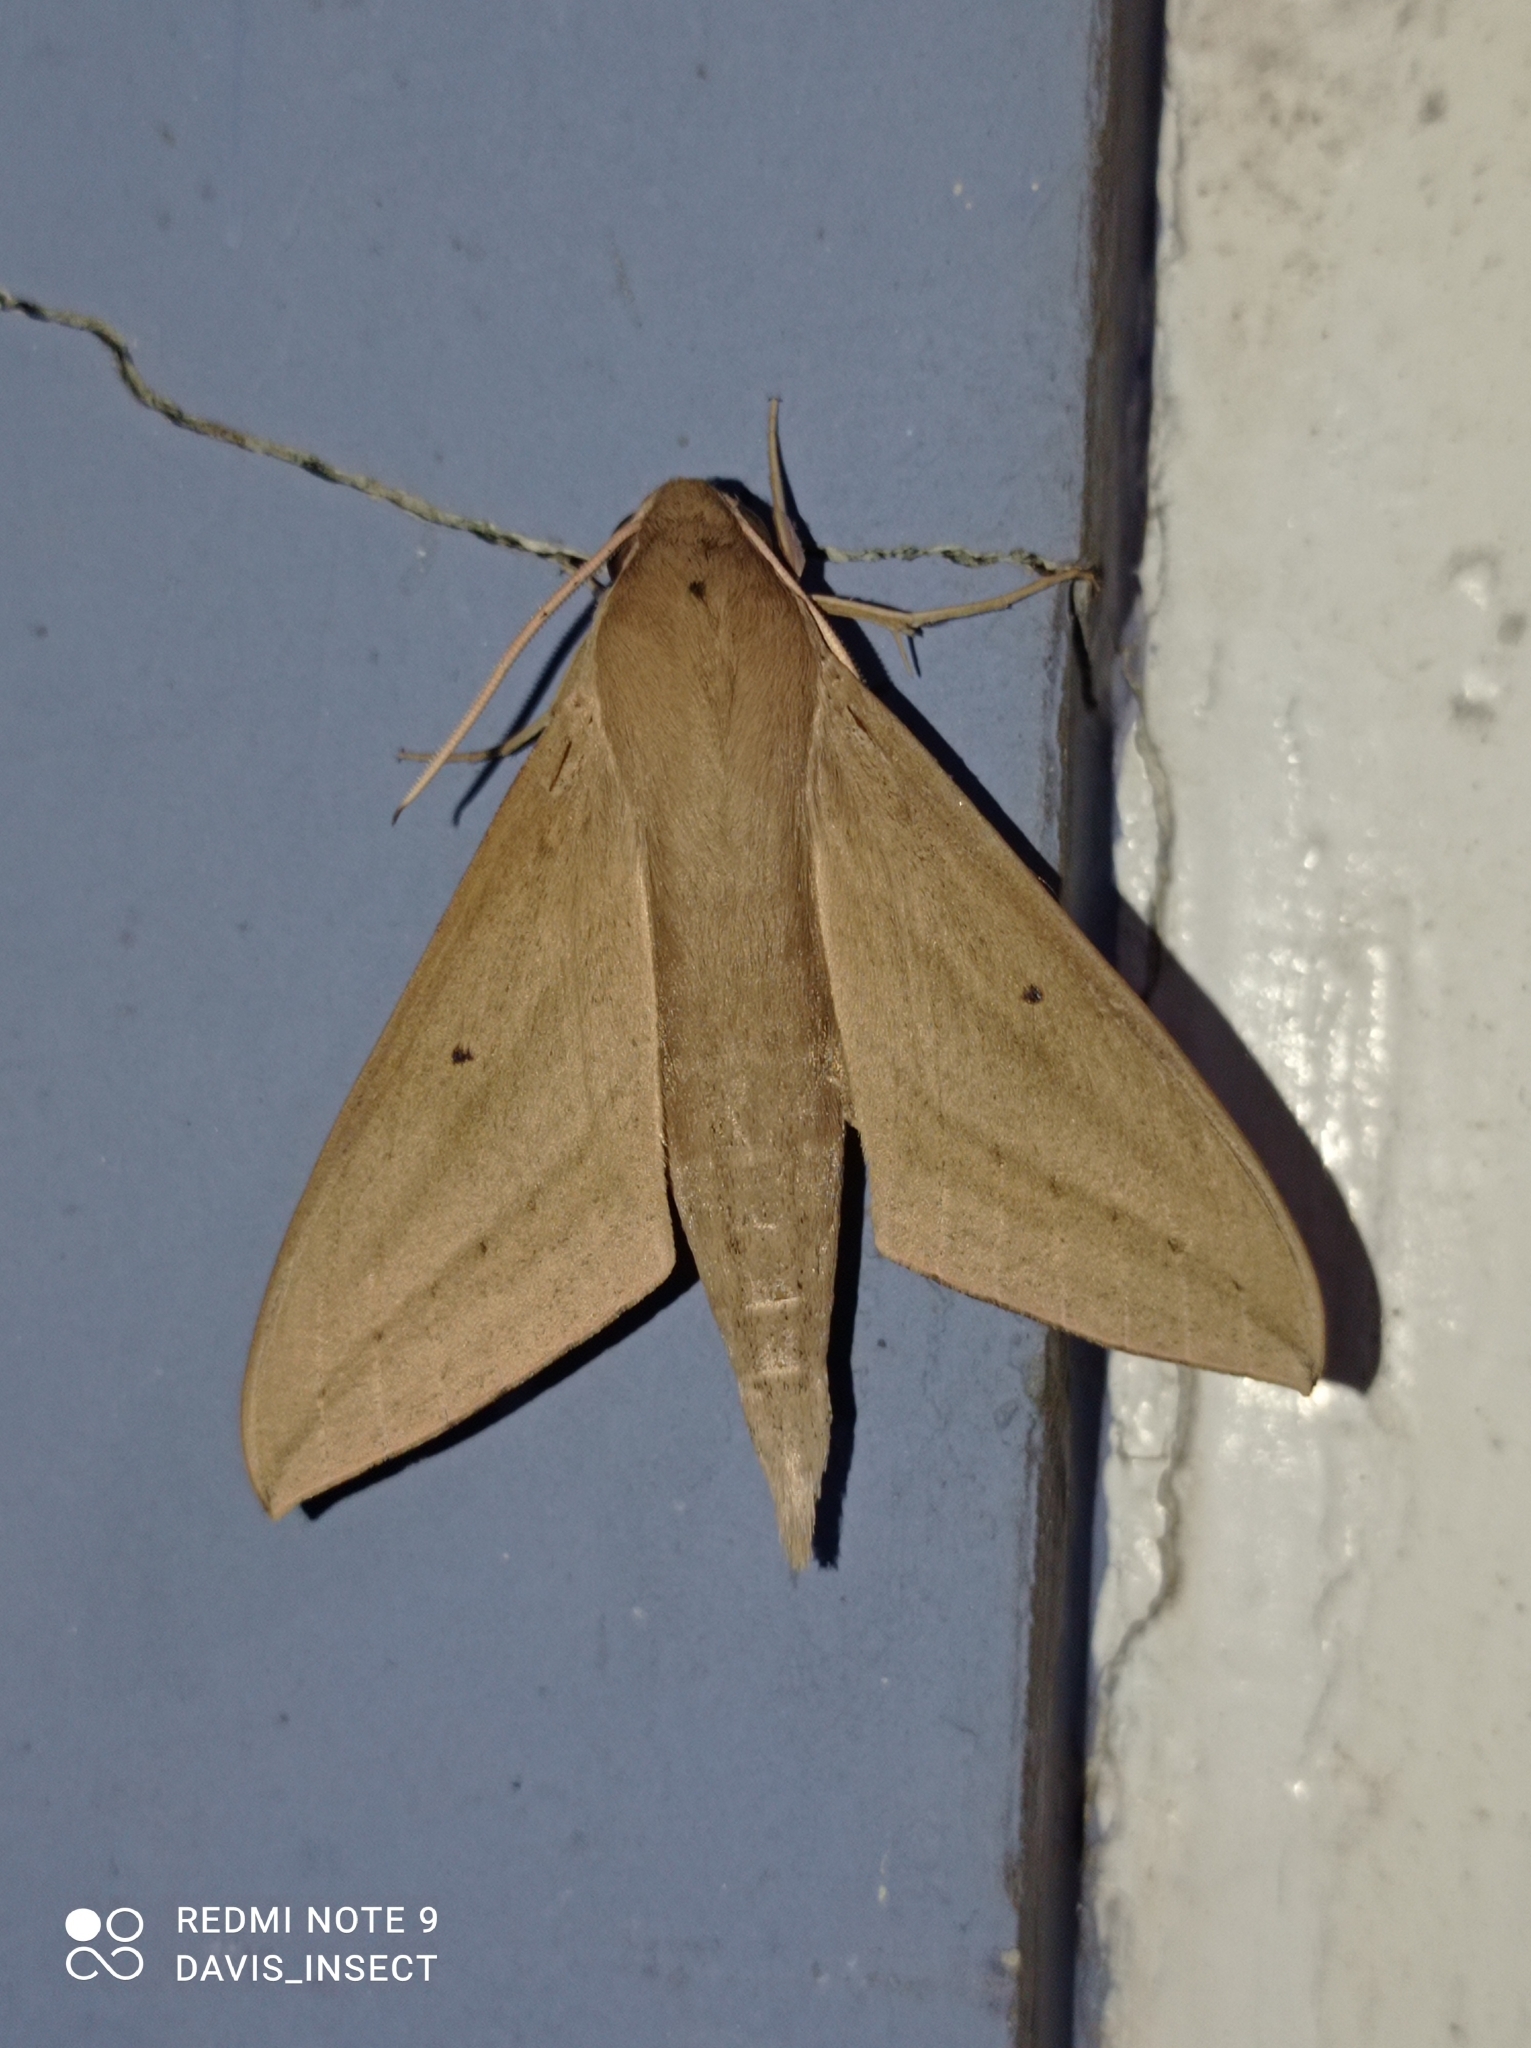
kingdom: Animalia
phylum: Arthropoda
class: Insecta
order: Lepidoptera
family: Sphingidae
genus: Theretra
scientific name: Theretra rhesus
